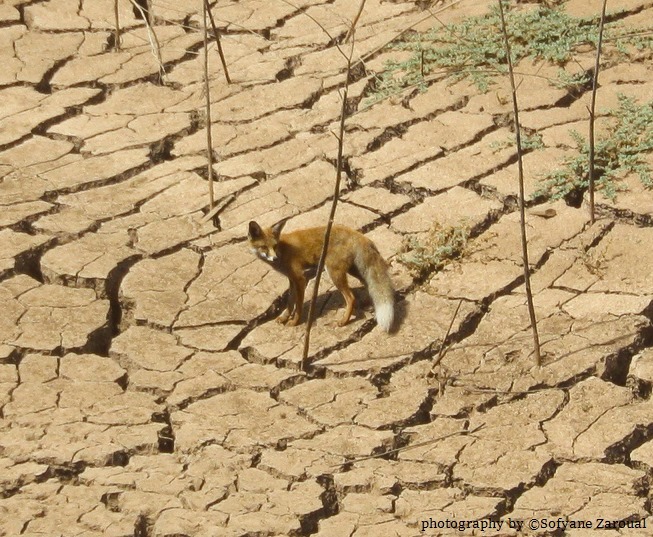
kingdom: Animalia
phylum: Chordata
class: Mammalia
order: Carnivora
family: Canidae
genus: Vulpes
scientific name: Vulpes vulpes
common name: Red fox
